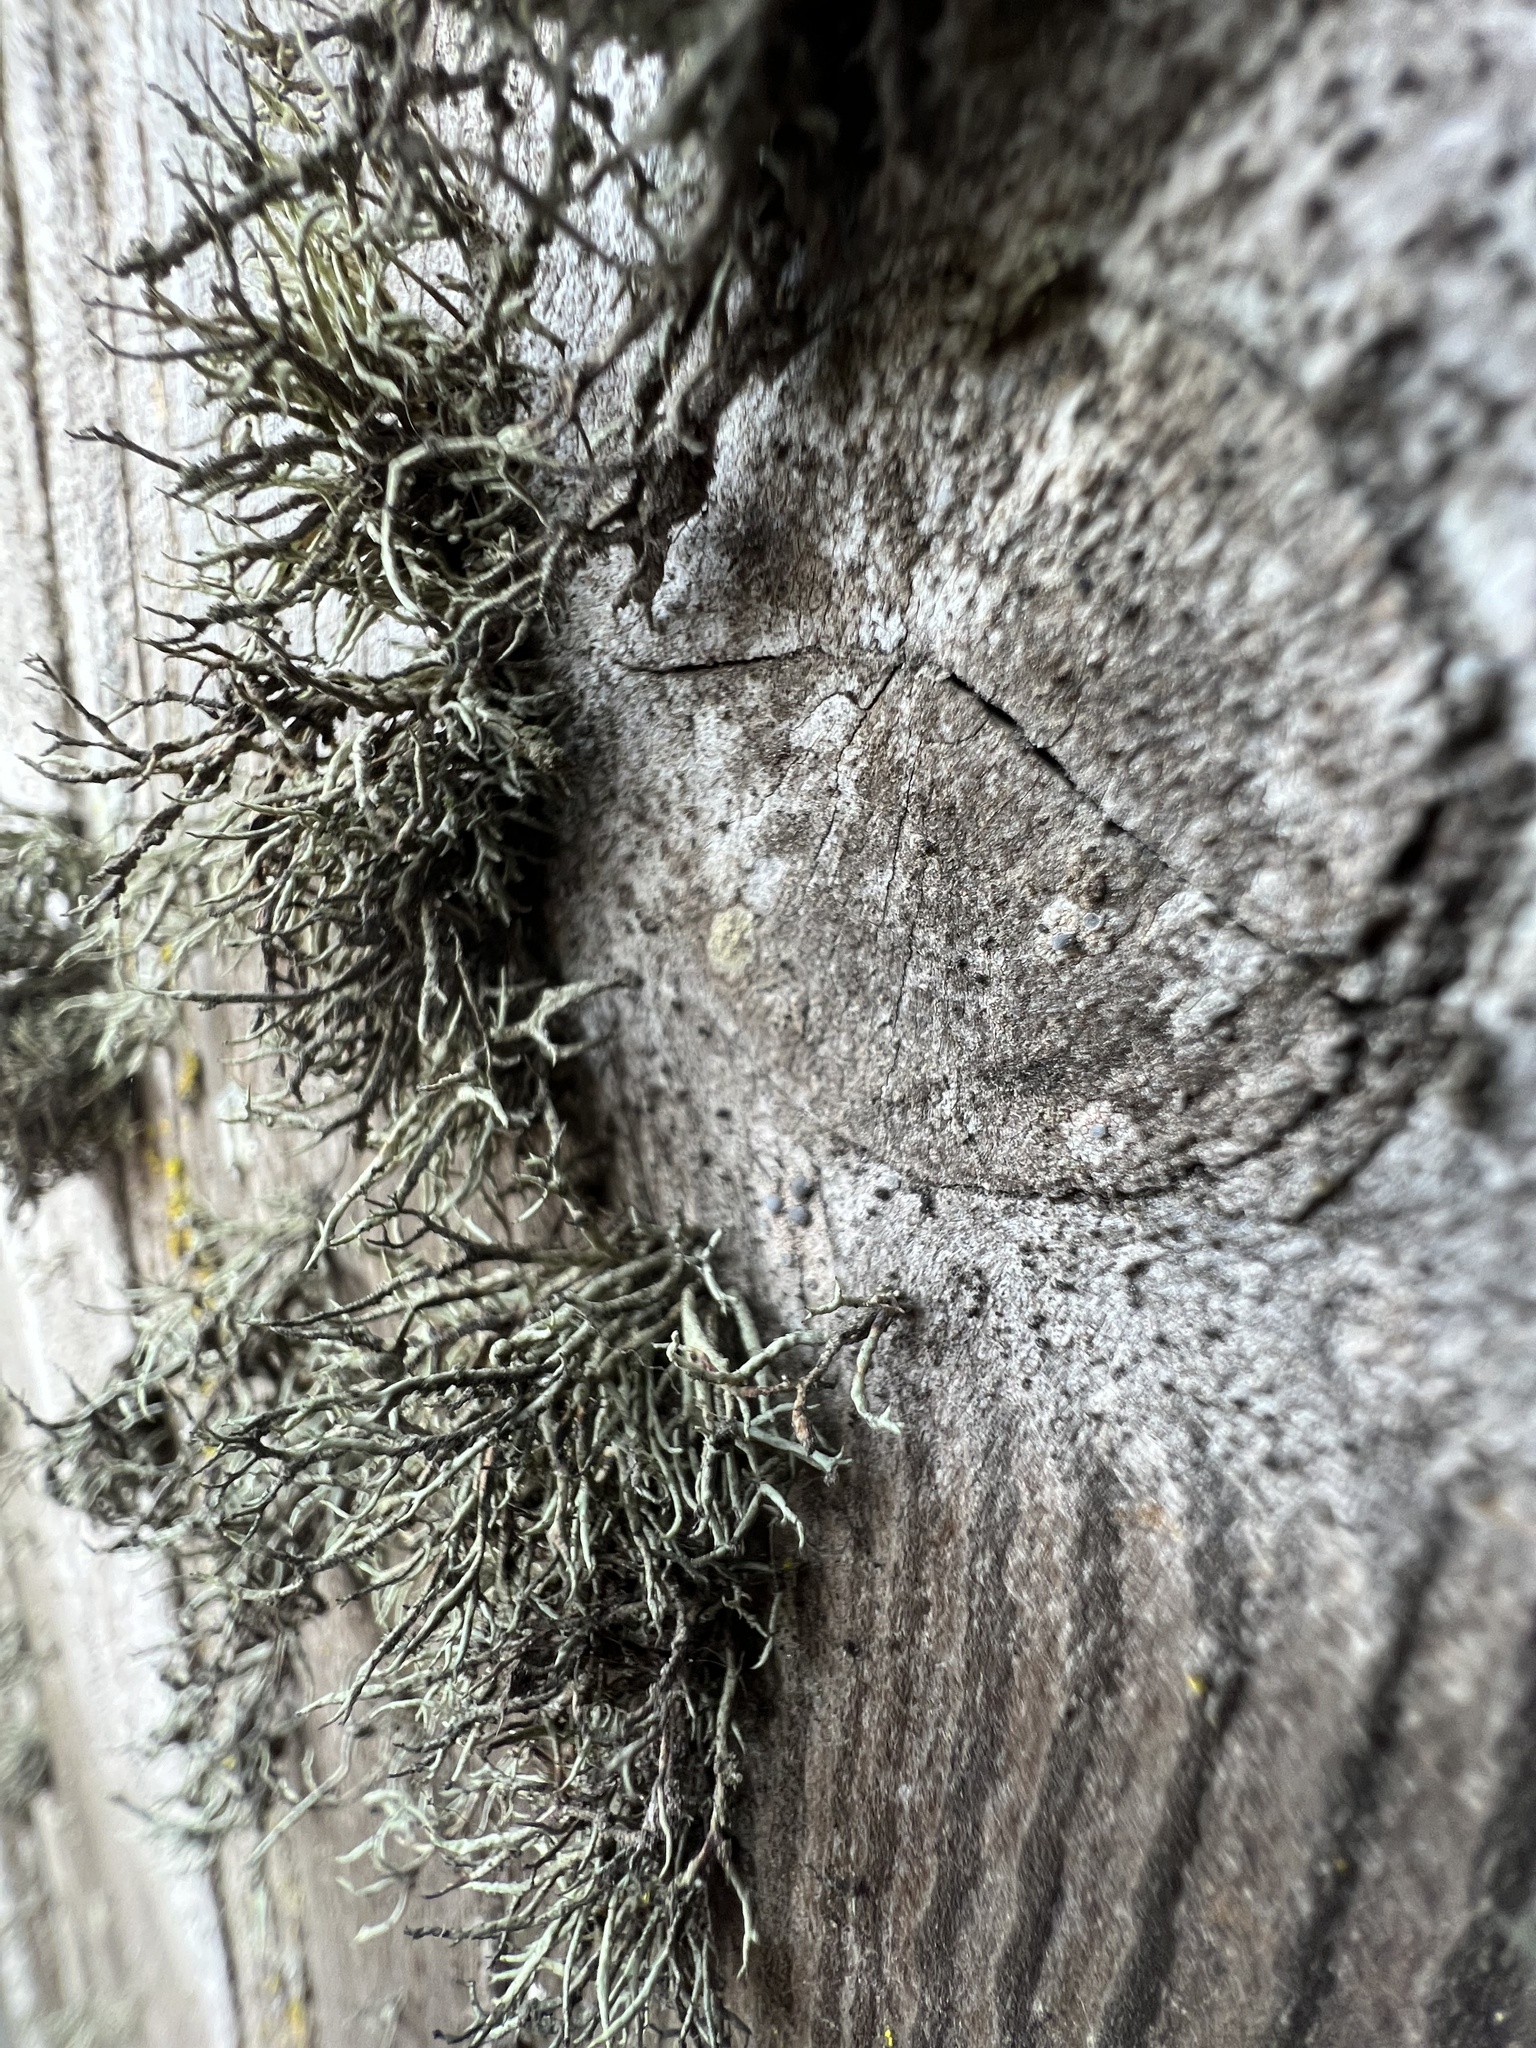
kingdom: Fungi
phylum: Ascomycota
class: Lecanoromycetes
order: Lecanorales
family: Ramalinaceae
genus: Niebla
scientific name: Niebla cephalota
